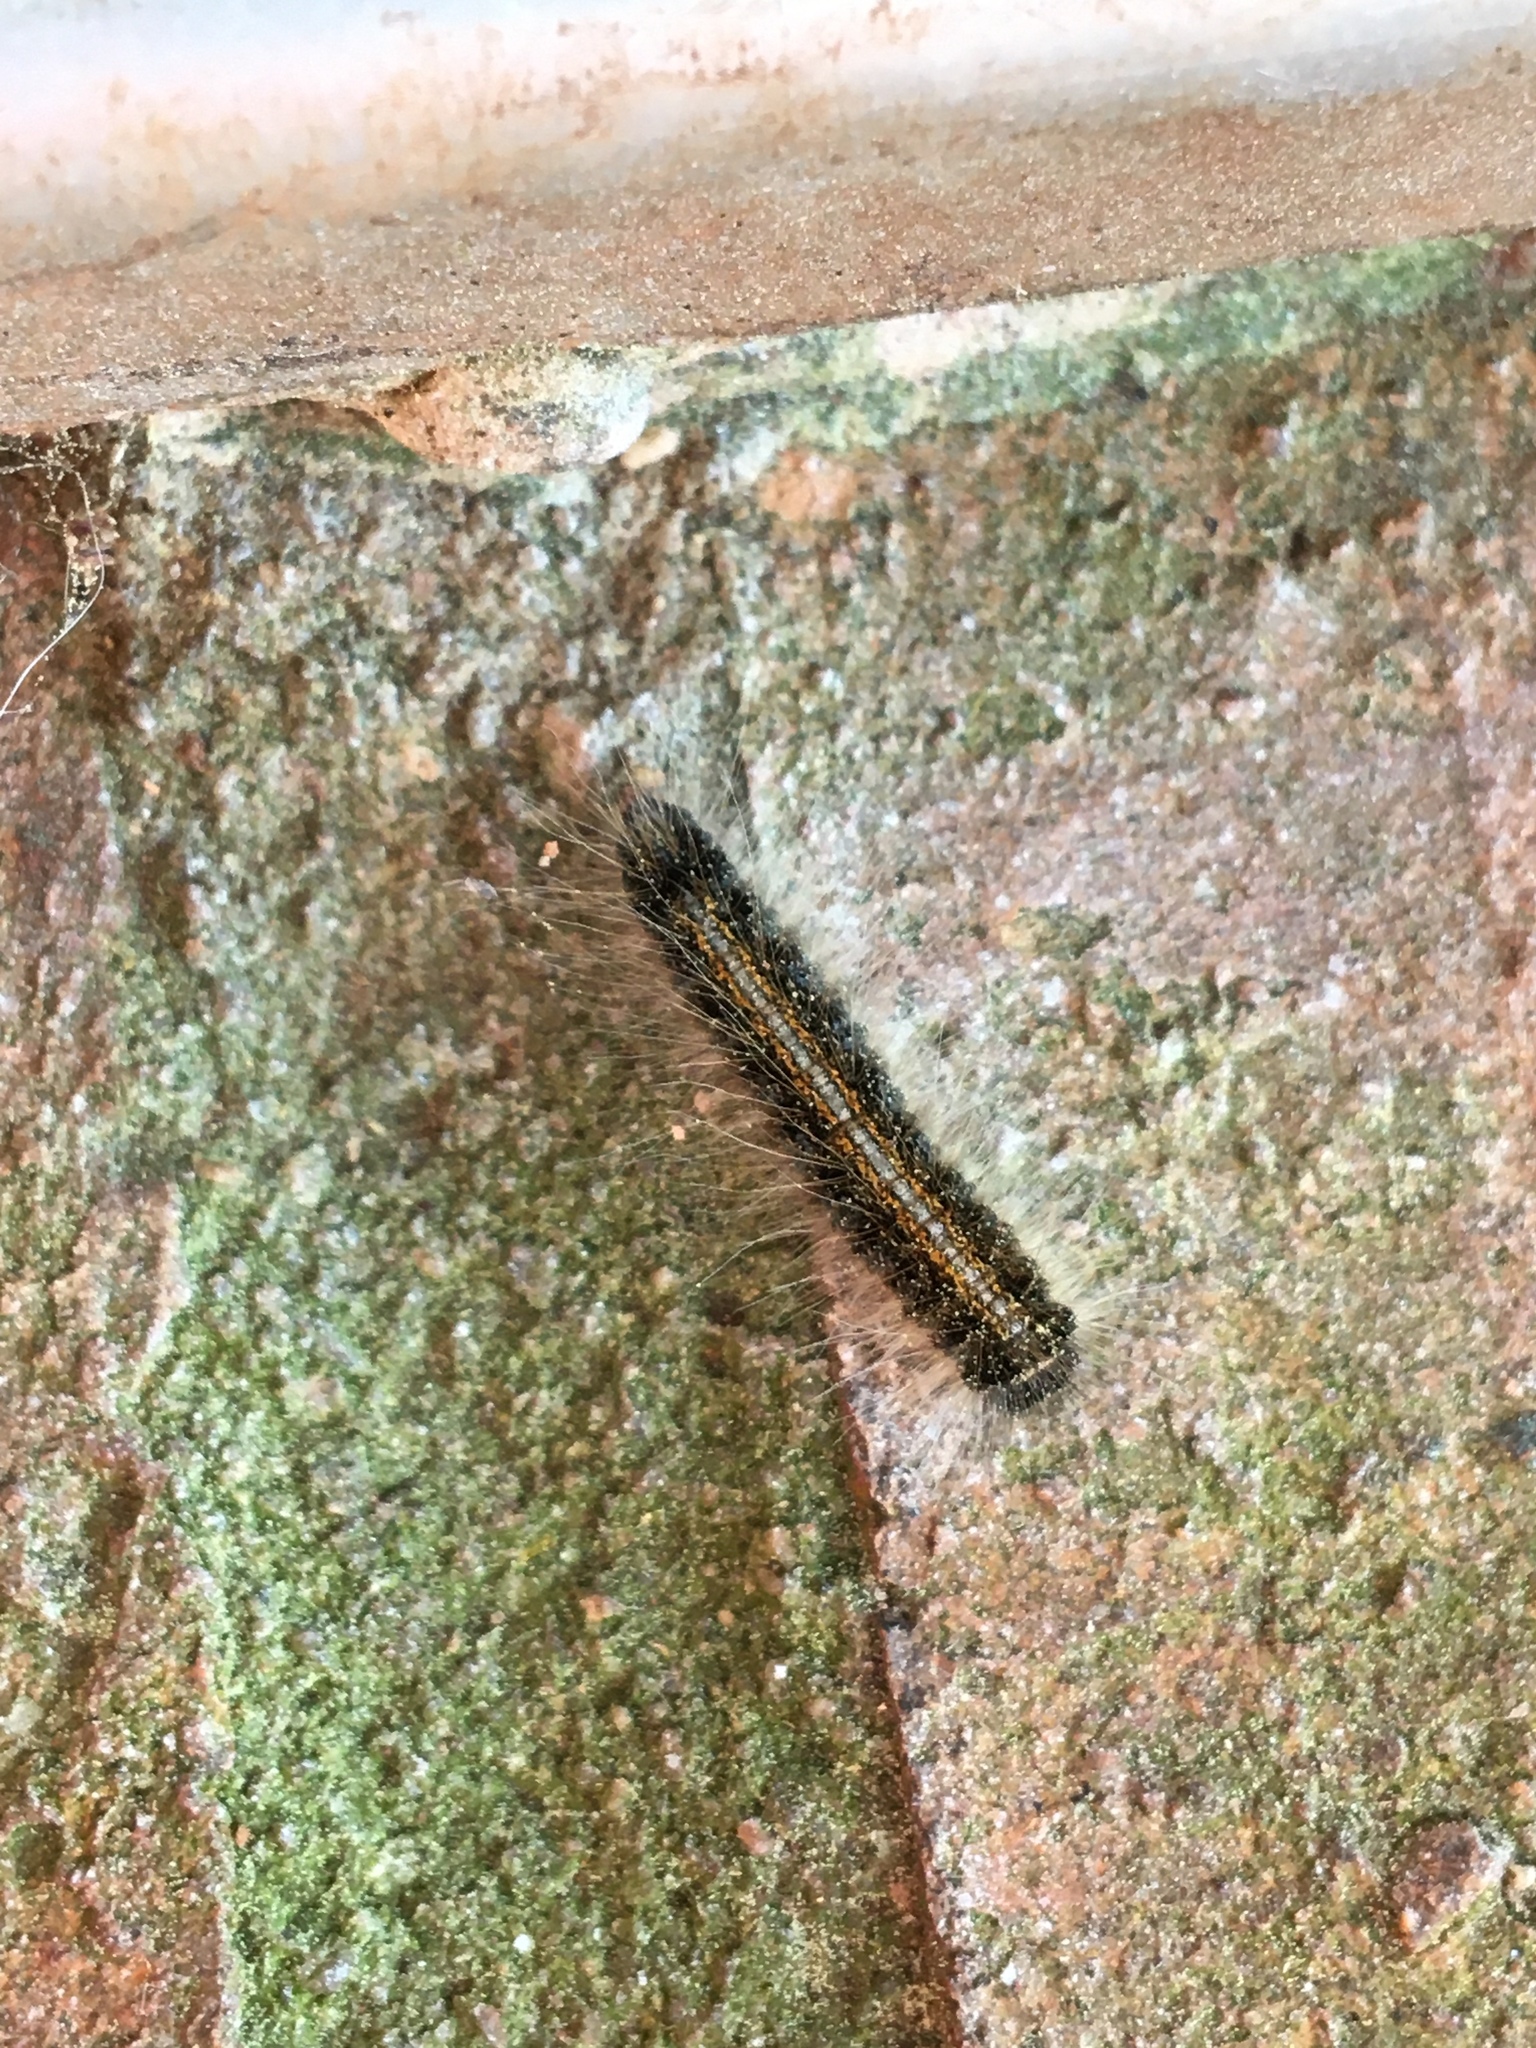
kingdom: Animalia
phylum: Arthropoda
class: Insecta
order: Lepidoptera
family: Lasiocampidae
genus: Malacosoma
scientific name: Malacosoma americana
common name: Eastern tent caterpillar moth
